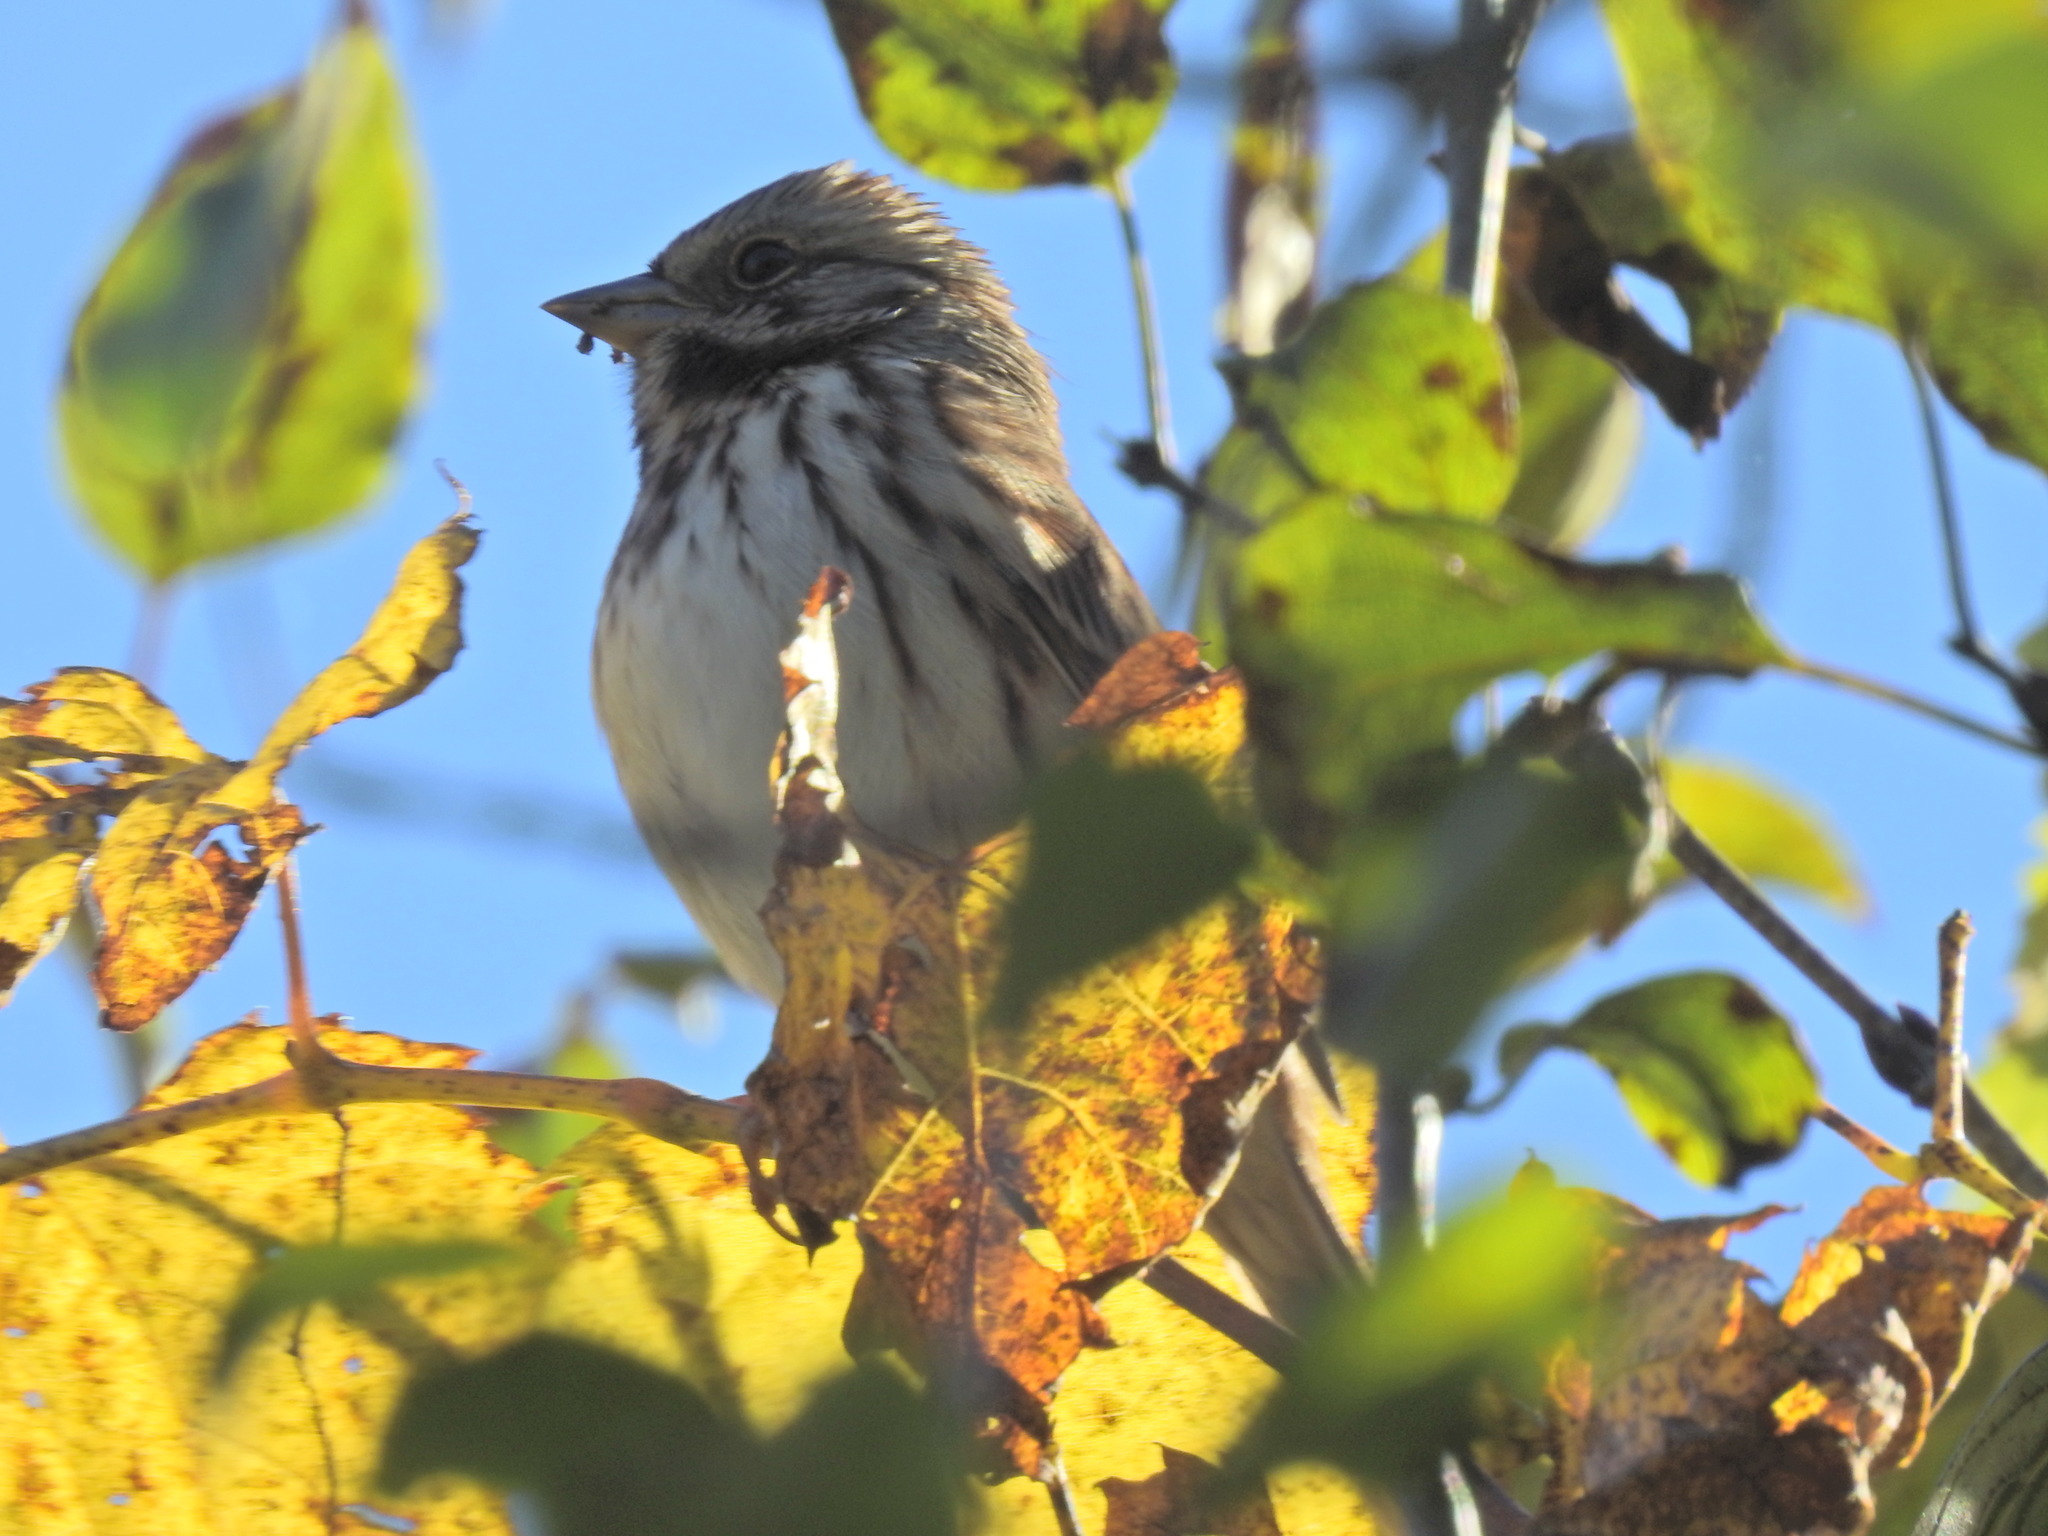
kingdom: Animalia
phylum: Chordata
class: Aves
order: Passeriformes
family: Passerellidae
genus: Melospiza
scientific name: Melospiza melodia
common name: Song sparrow
